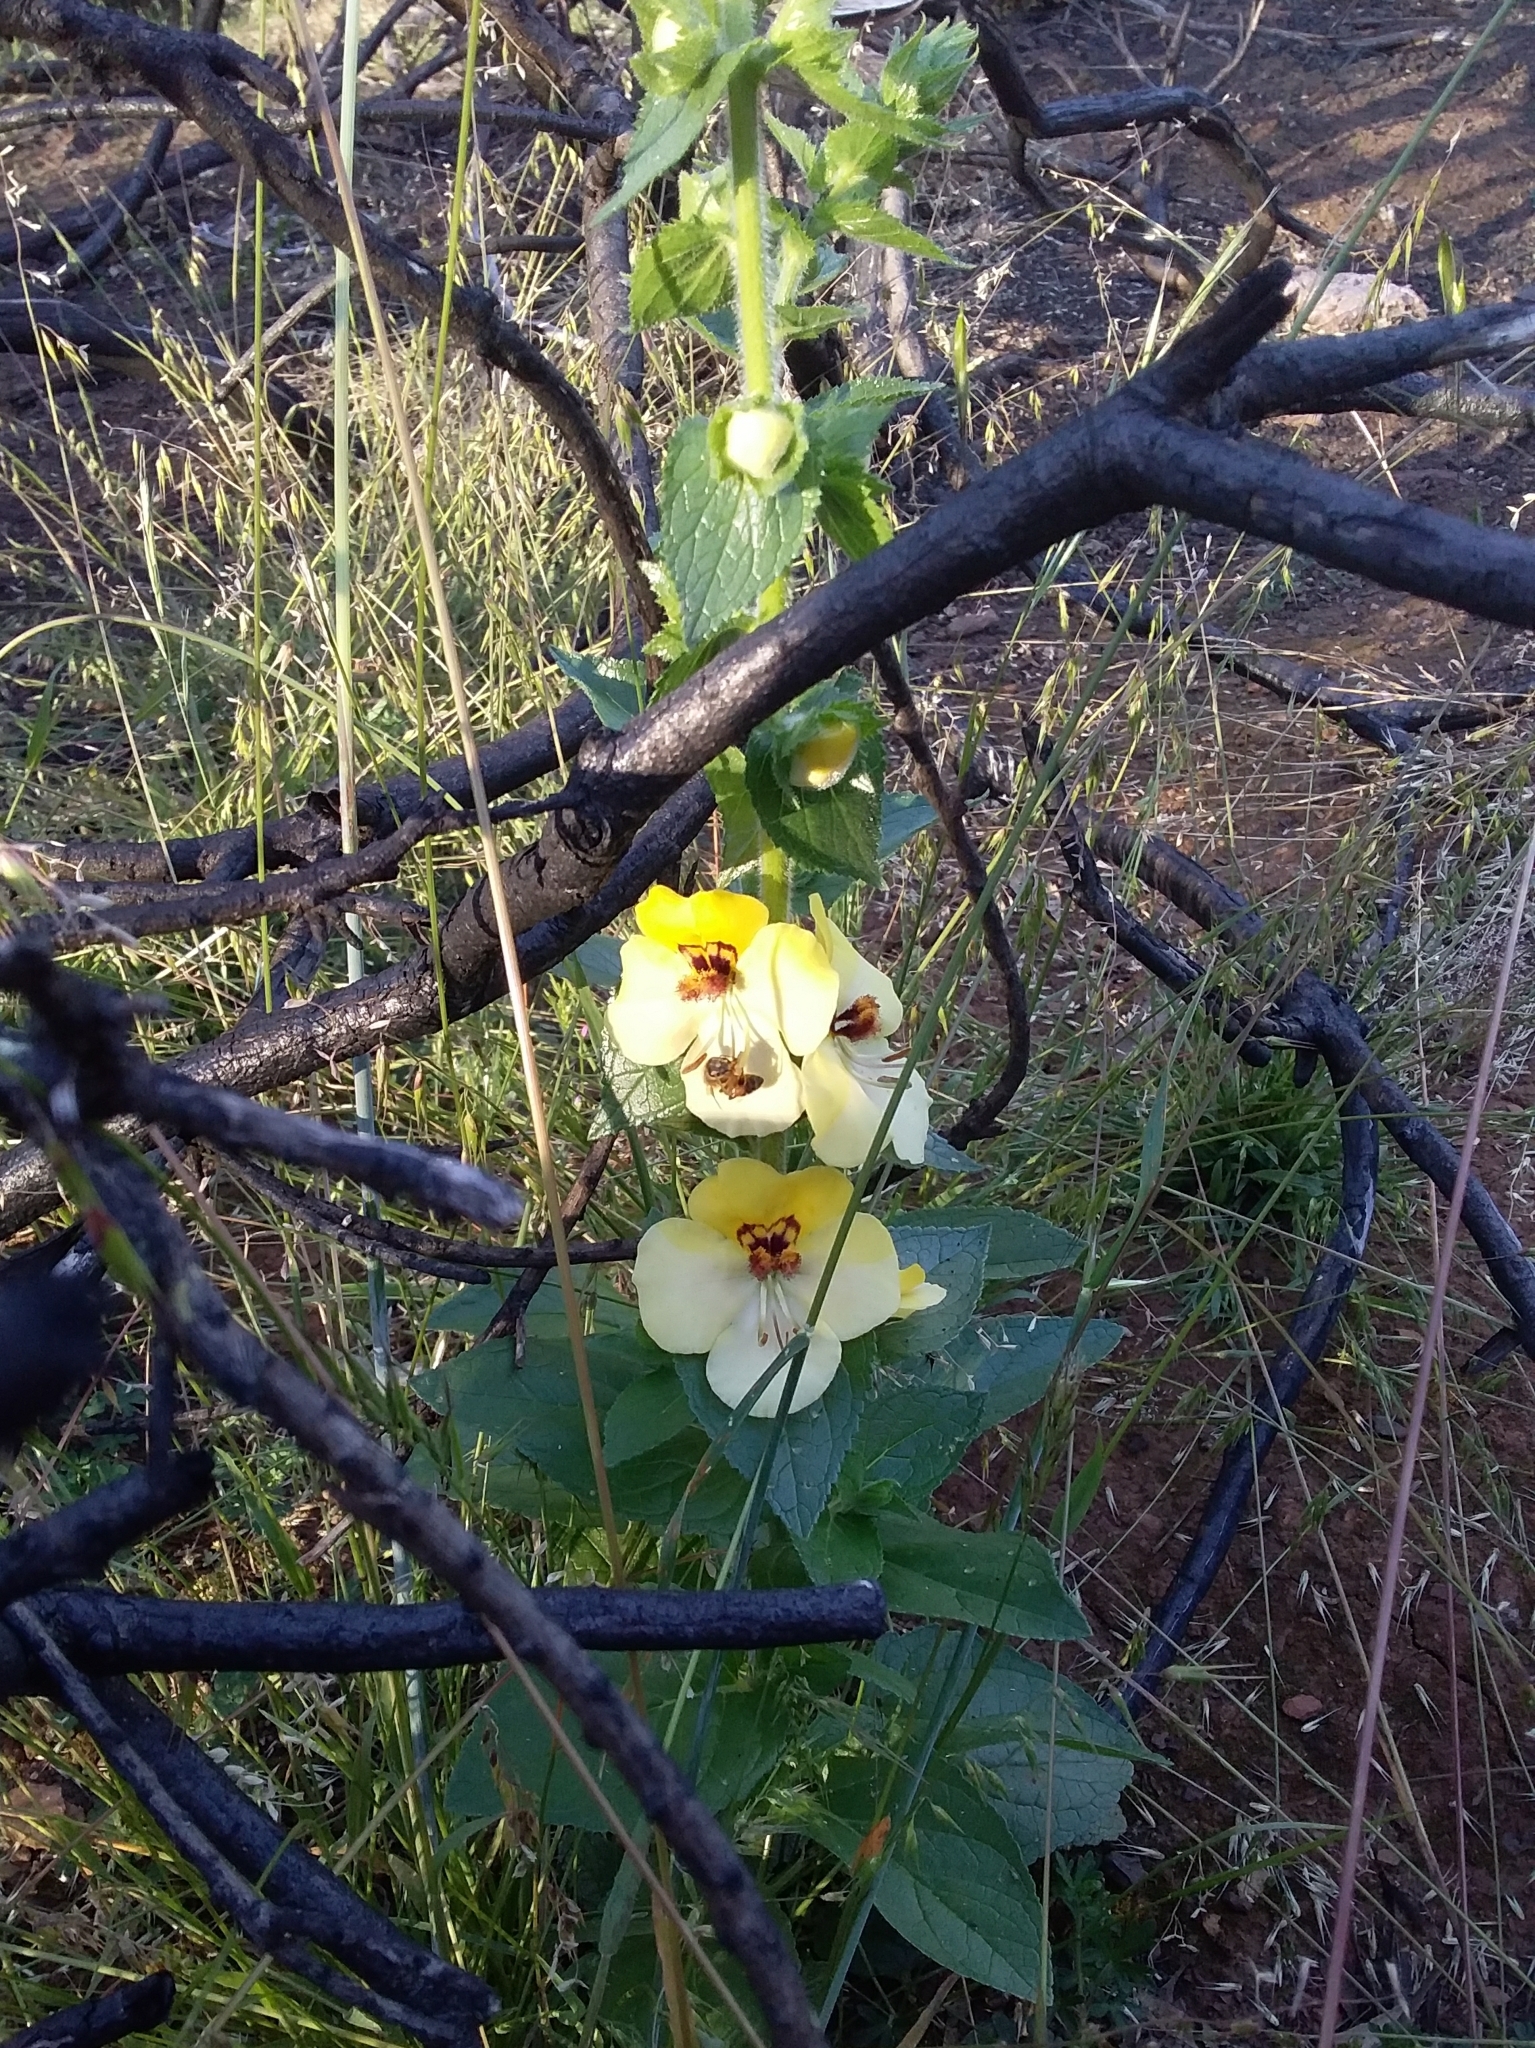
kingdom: Plantae
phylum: Tracheophyta
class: Magnoliopsida
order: Lamiales
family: Scrophulariaceae
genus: Verbascum
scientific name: Verbascum creticum
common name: Cretan mullein
